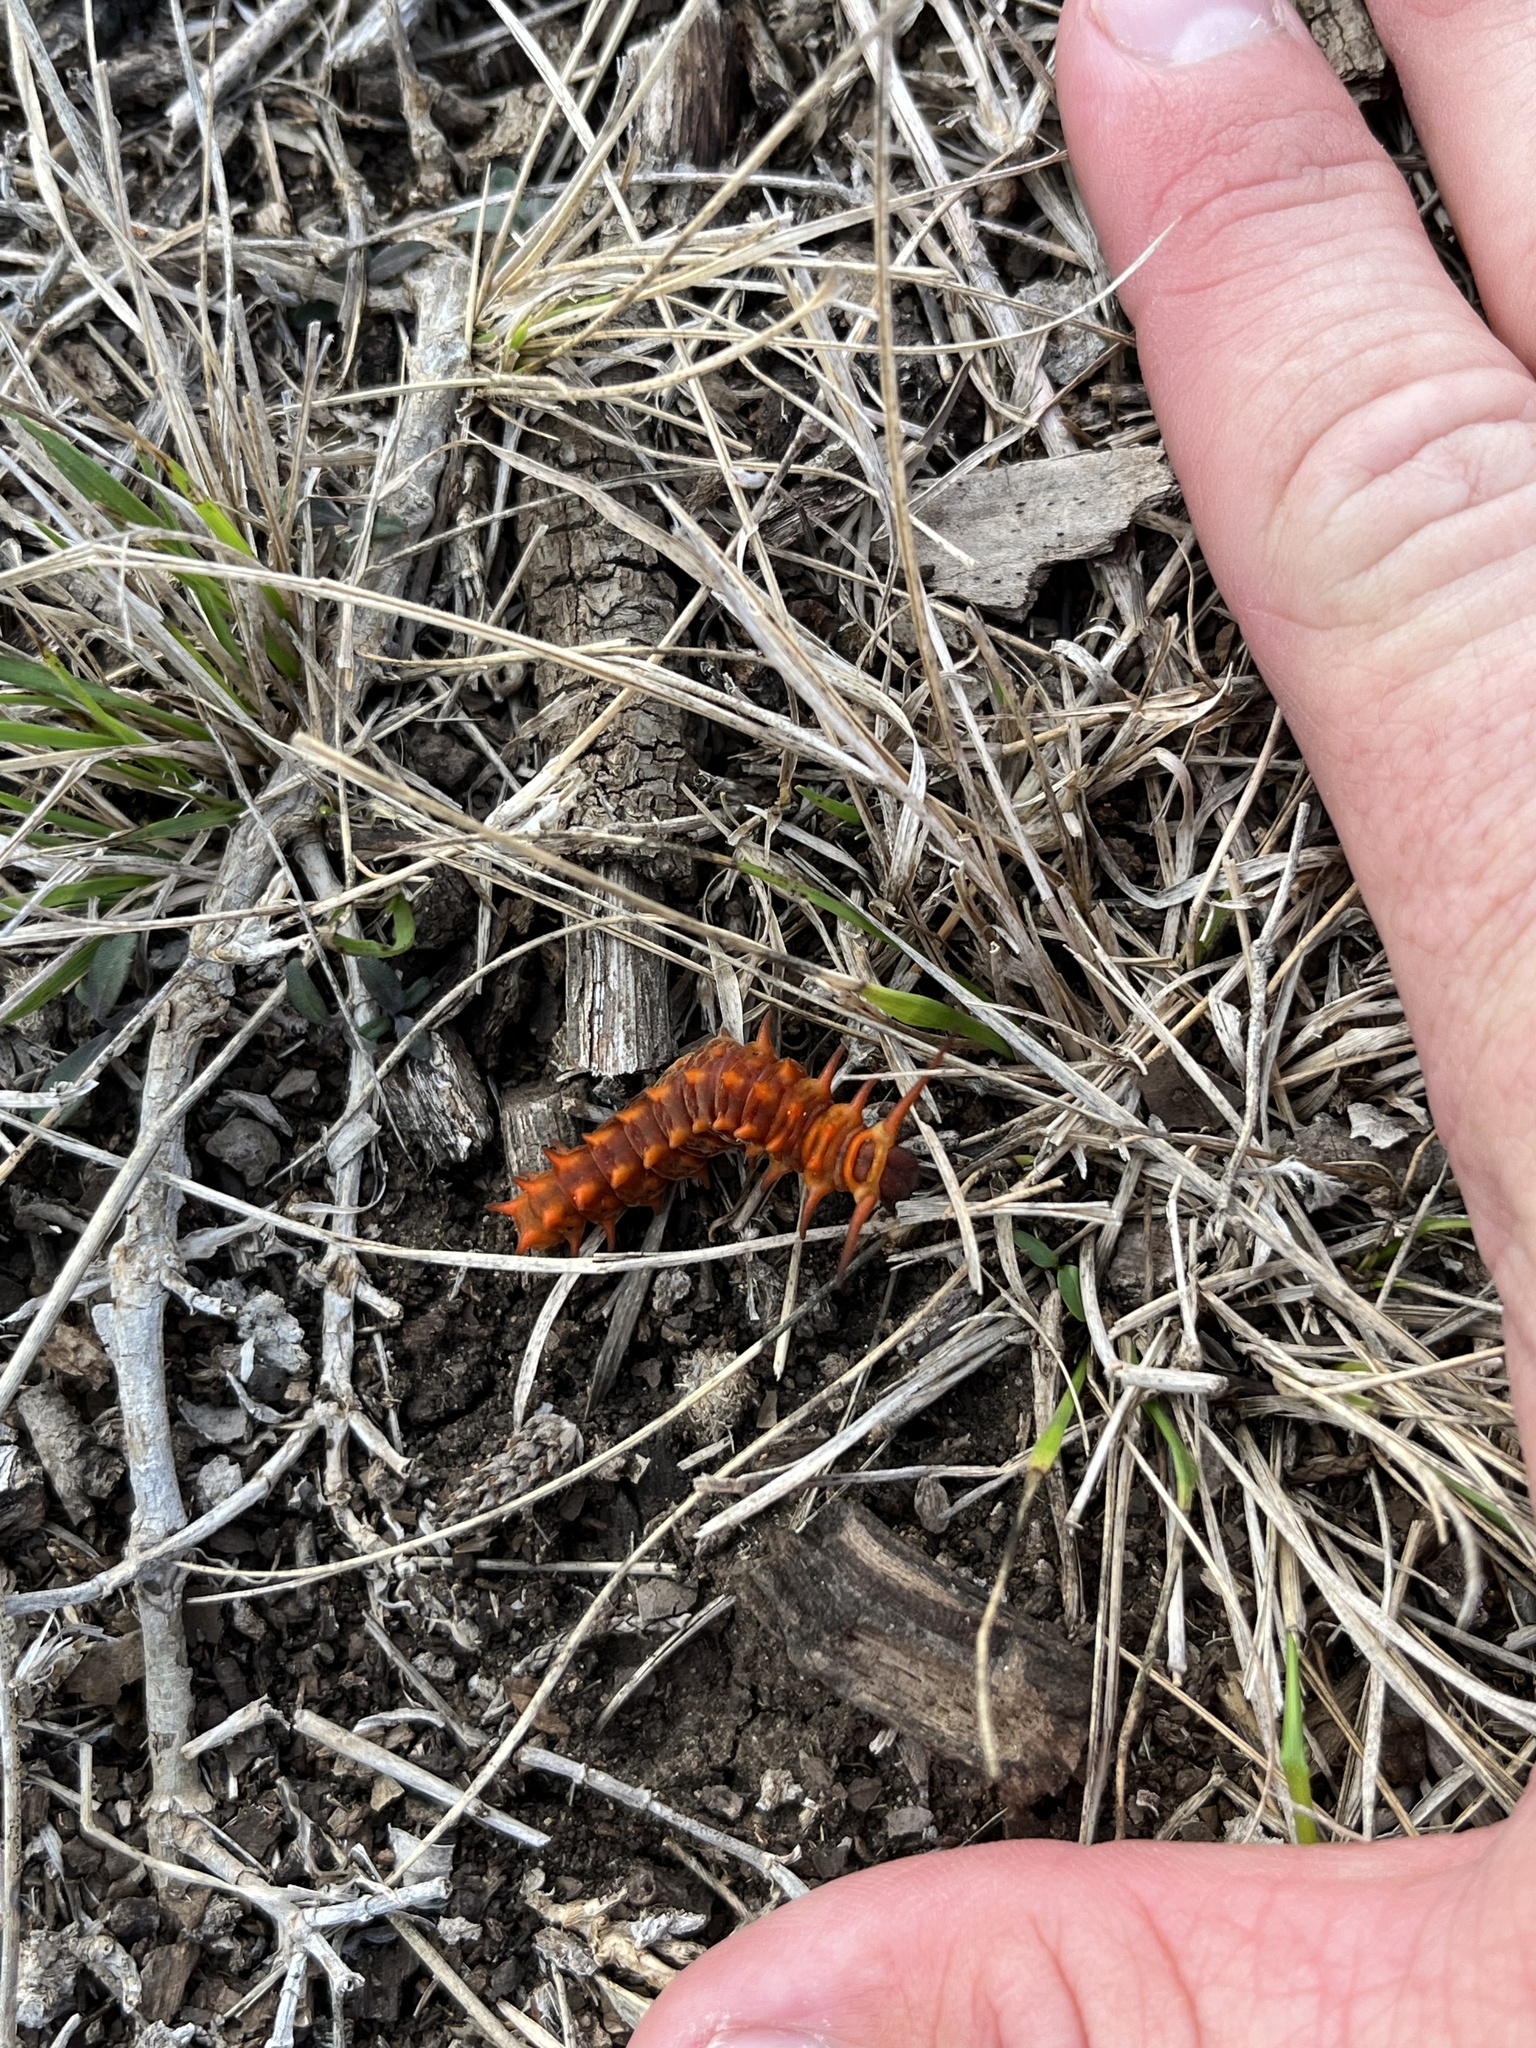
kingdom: Animalia
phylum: Arthropoda
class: Insecta
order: Lepidoptera
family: Papilionidae
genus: Battus
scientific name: Battus philenor
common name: Pipevine swallowtail
